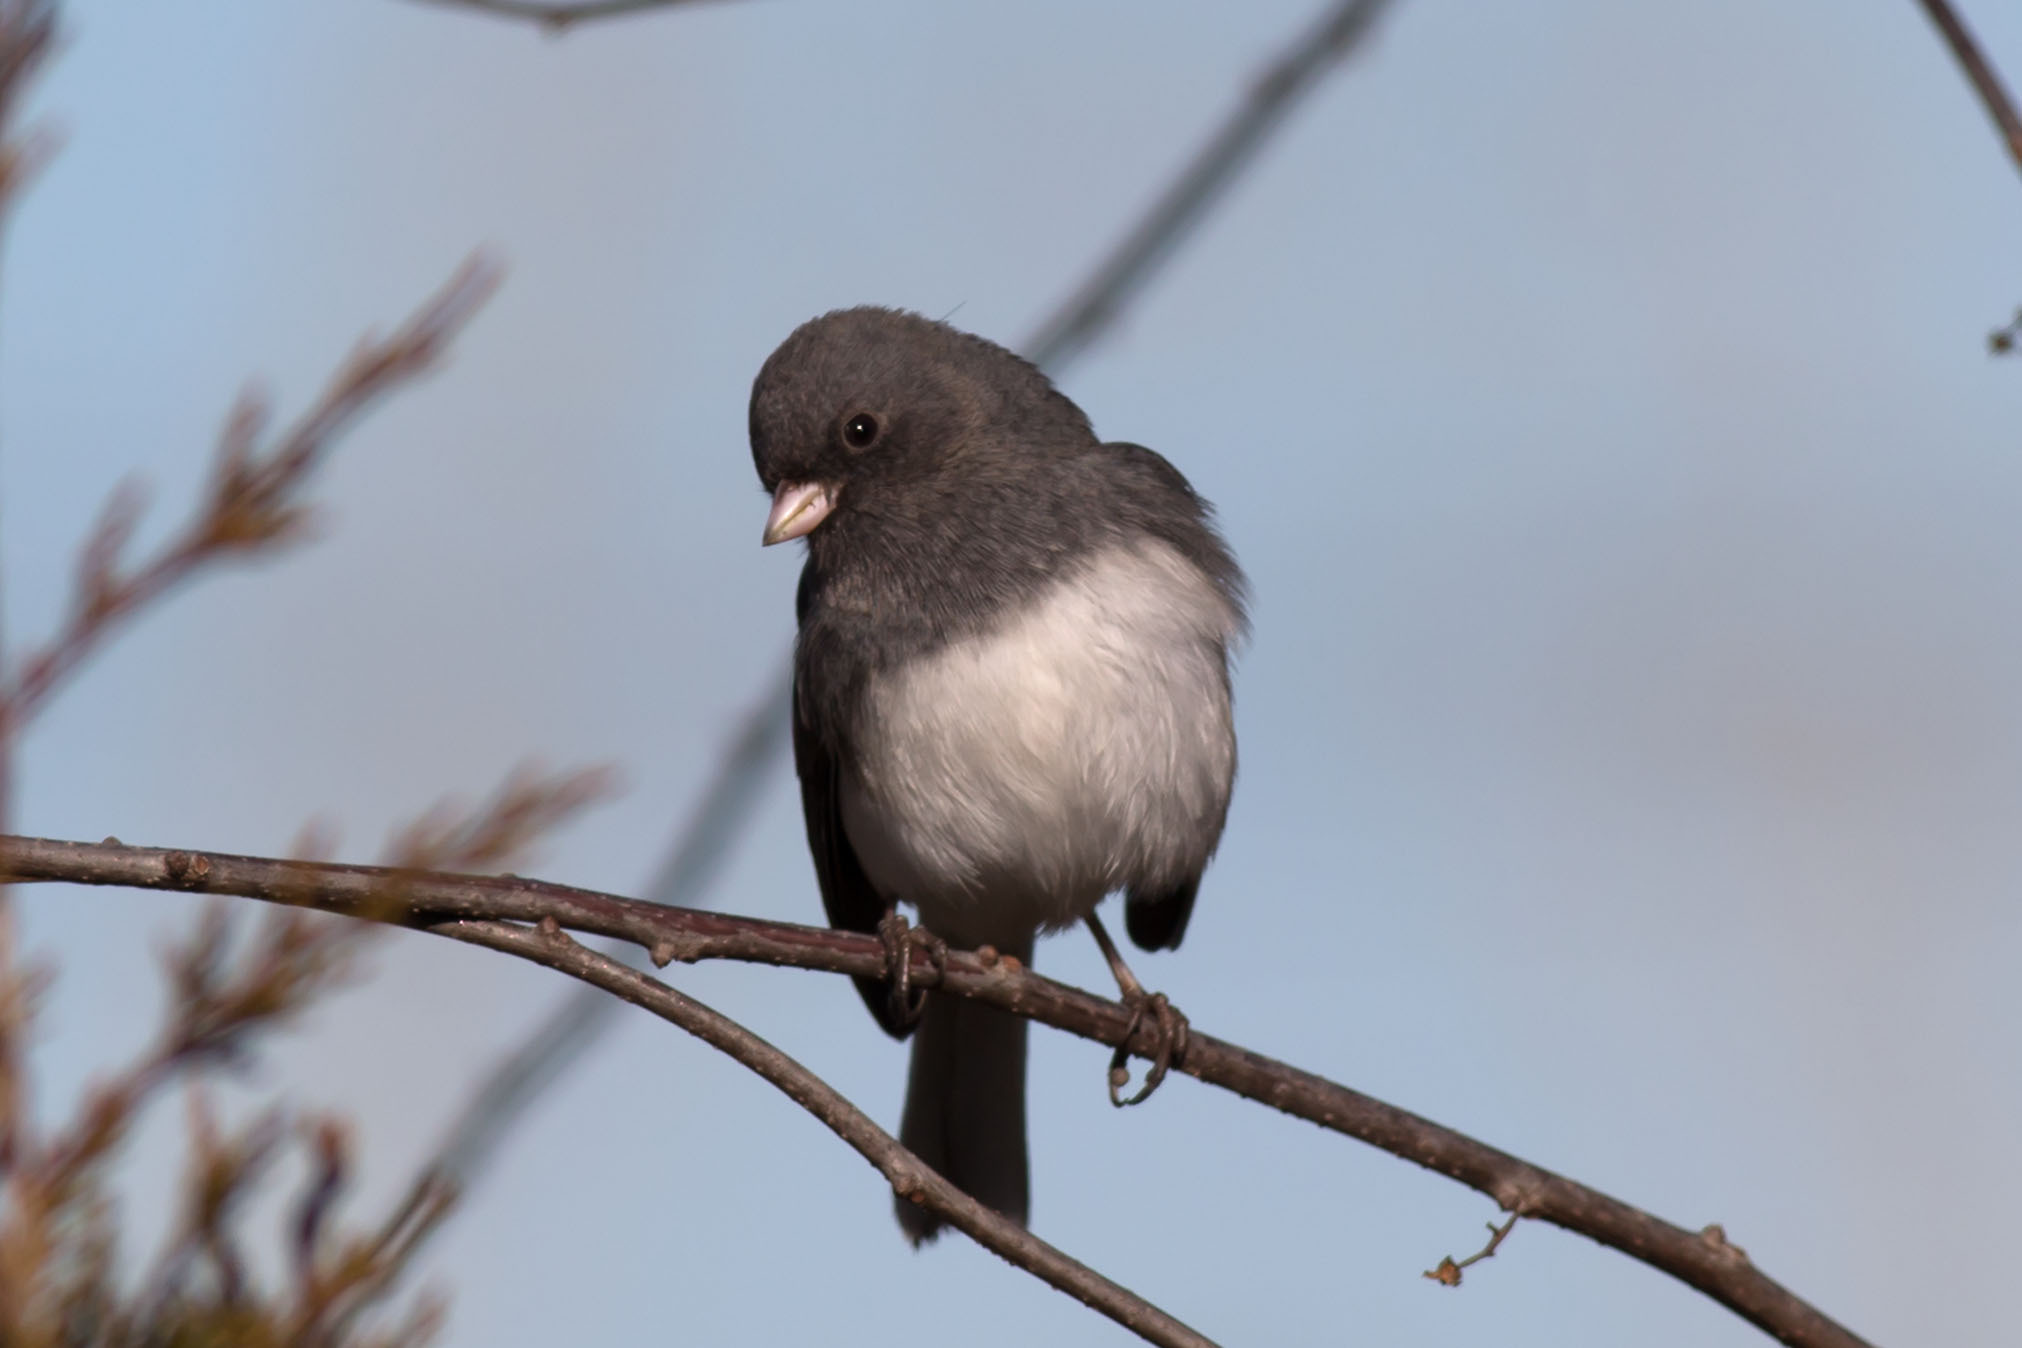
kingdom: Animalia
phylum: Chordata
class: Aves
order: Passeriformes
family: Passerellidae
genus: Junco
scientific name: Junco hyemalis
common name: Dark-eyed junco
